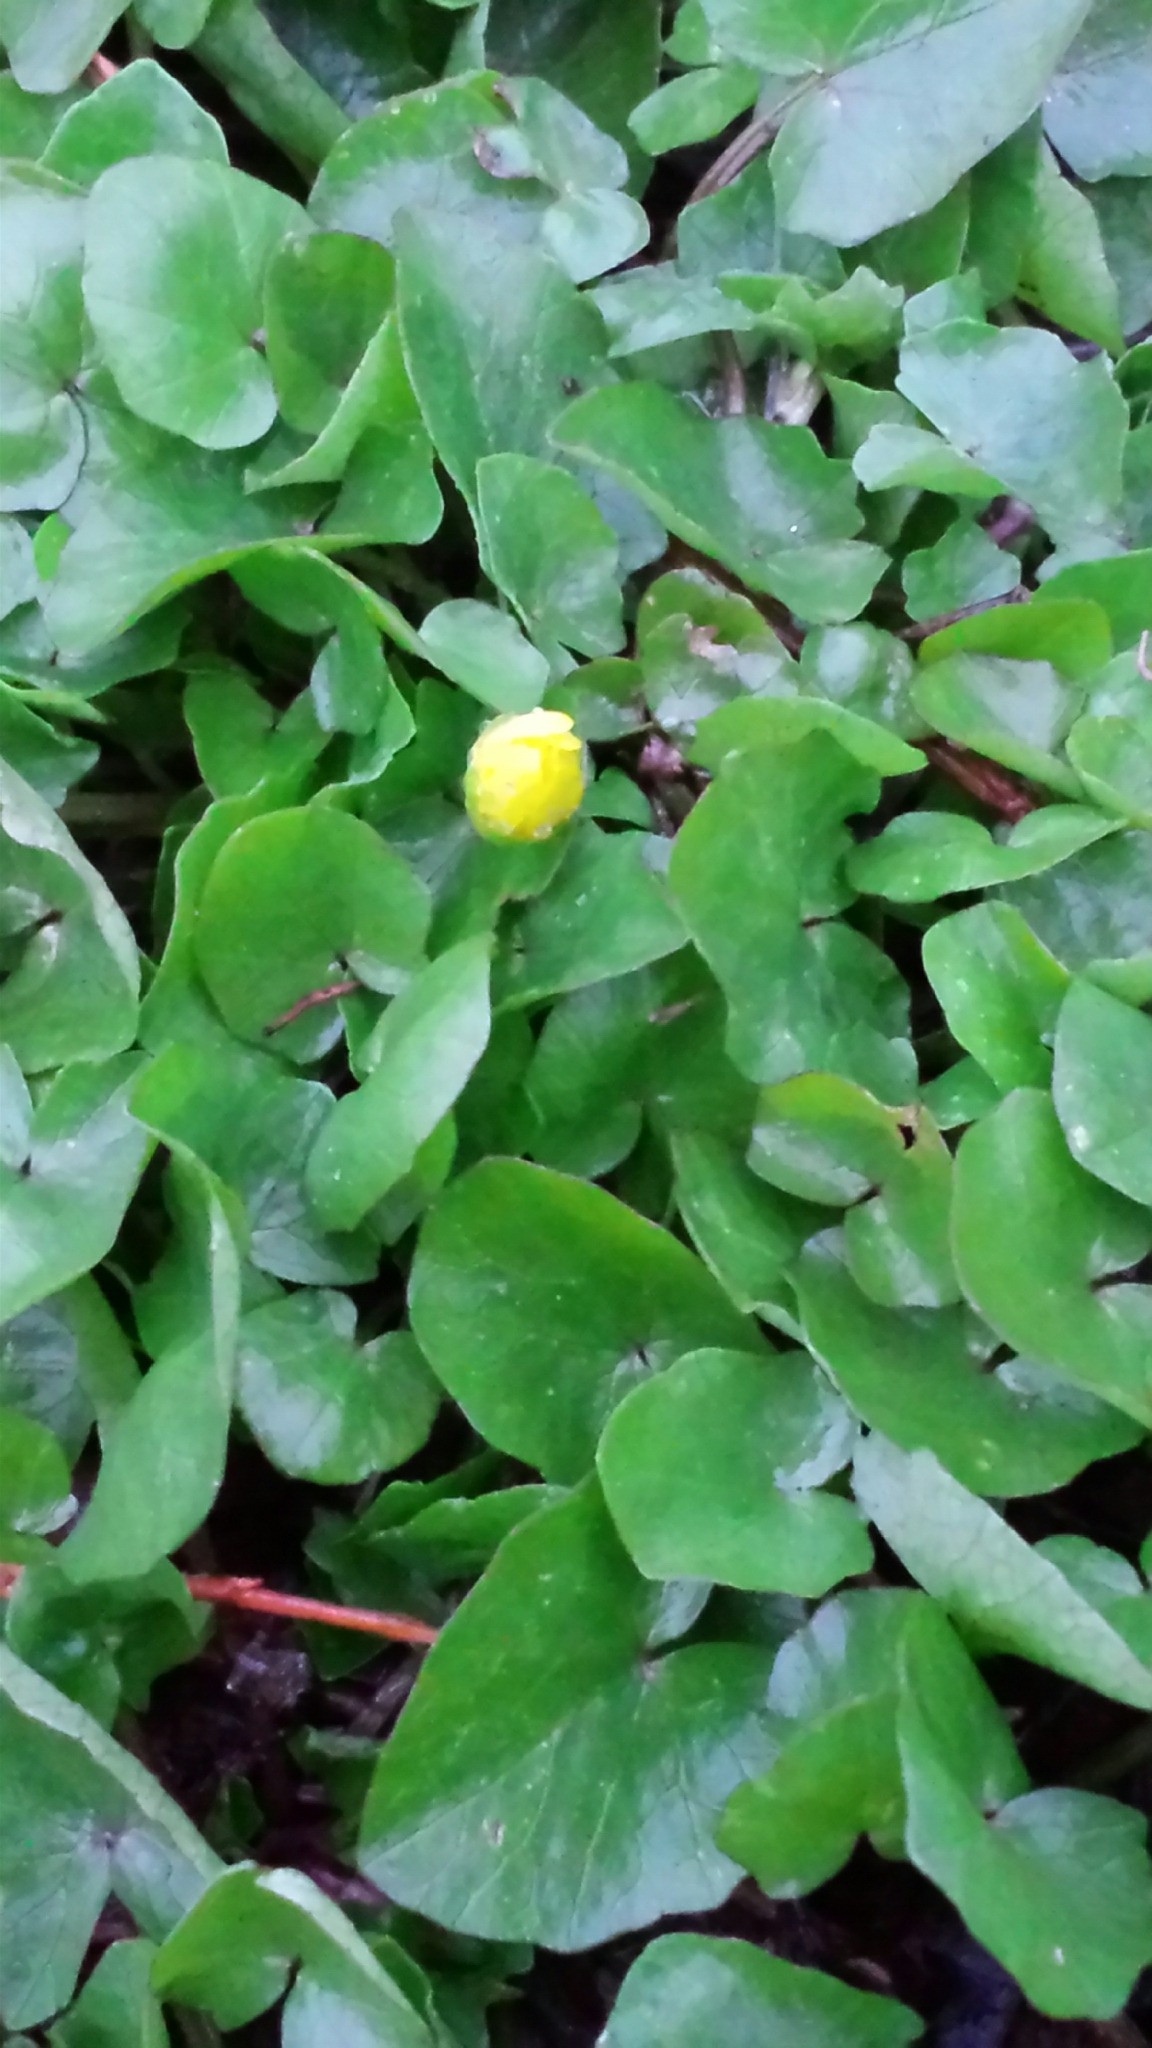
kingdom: Plantae
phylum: Tracheophyta
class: Magnoliopsida
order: Ranunculales
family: Ranunculaceae
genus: Ficaria
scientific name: Ficaria verna
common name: Lesser celandine
